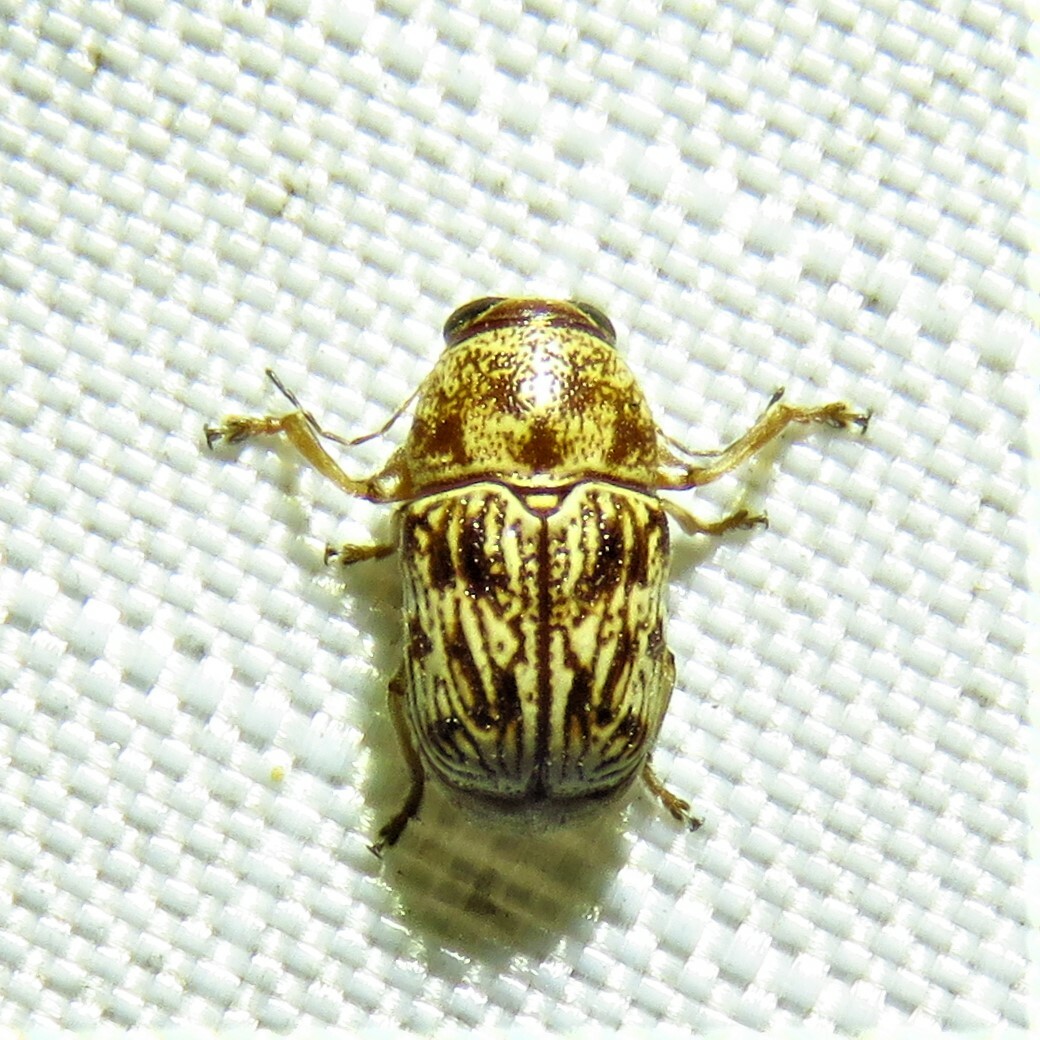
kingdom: Animalia
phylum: Arthropoda
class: Insecta
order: Coleoptera
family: Chrysomelidae
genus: Pachybrachis
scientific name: Pachybrachis
